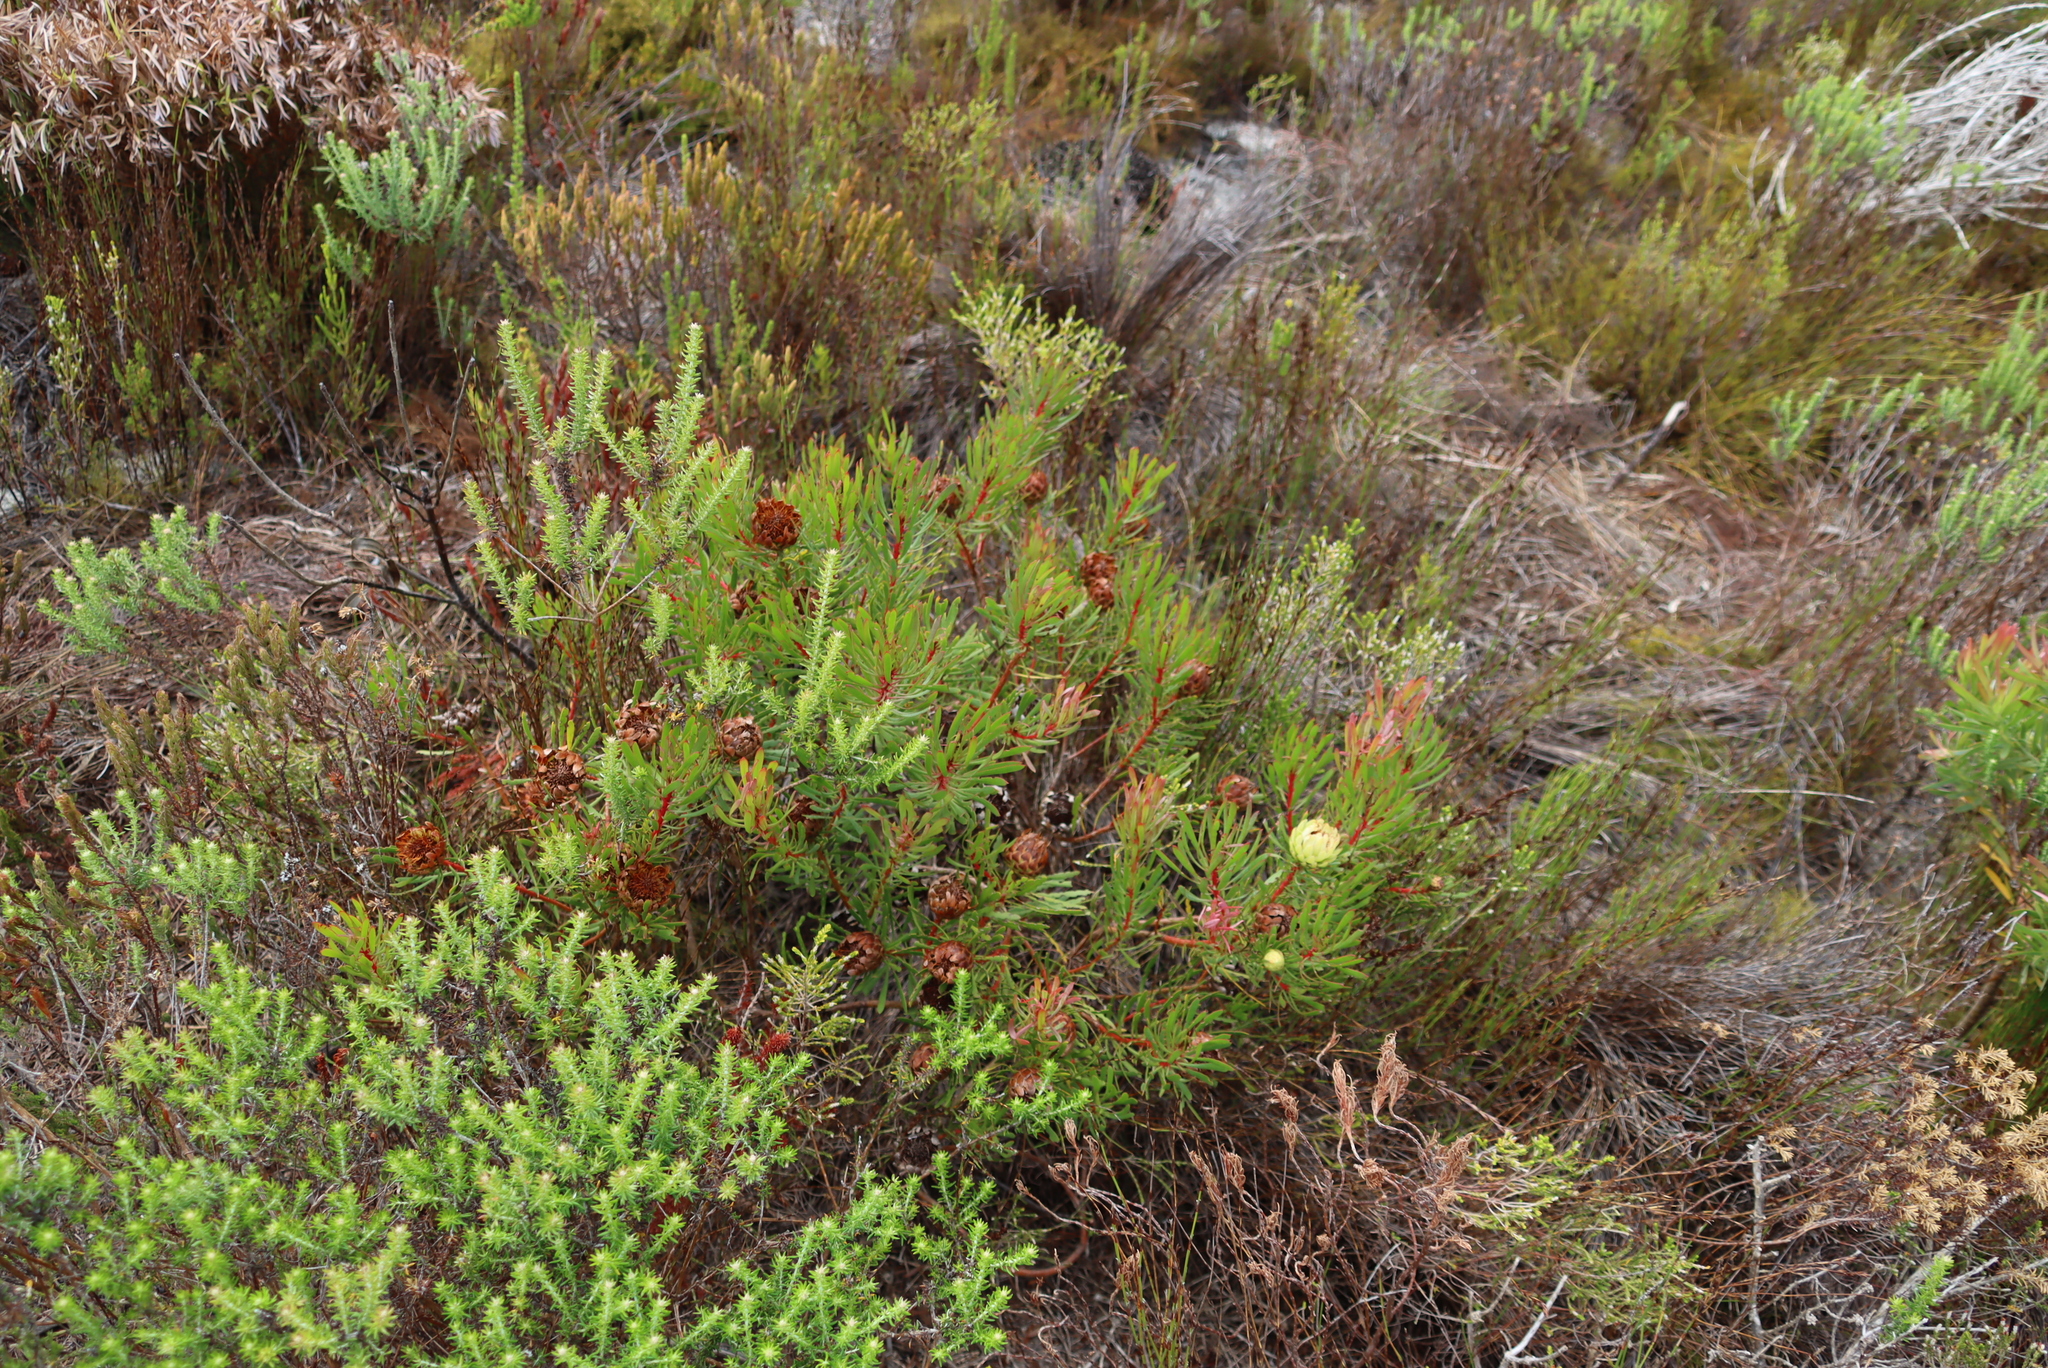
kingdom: Plantae
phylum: Tracheophyta
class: Magnoliopsida
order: Proteales
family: Proteaceae
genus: Protea
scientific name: Protea scolymocephala
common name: Thistle sugarbush
